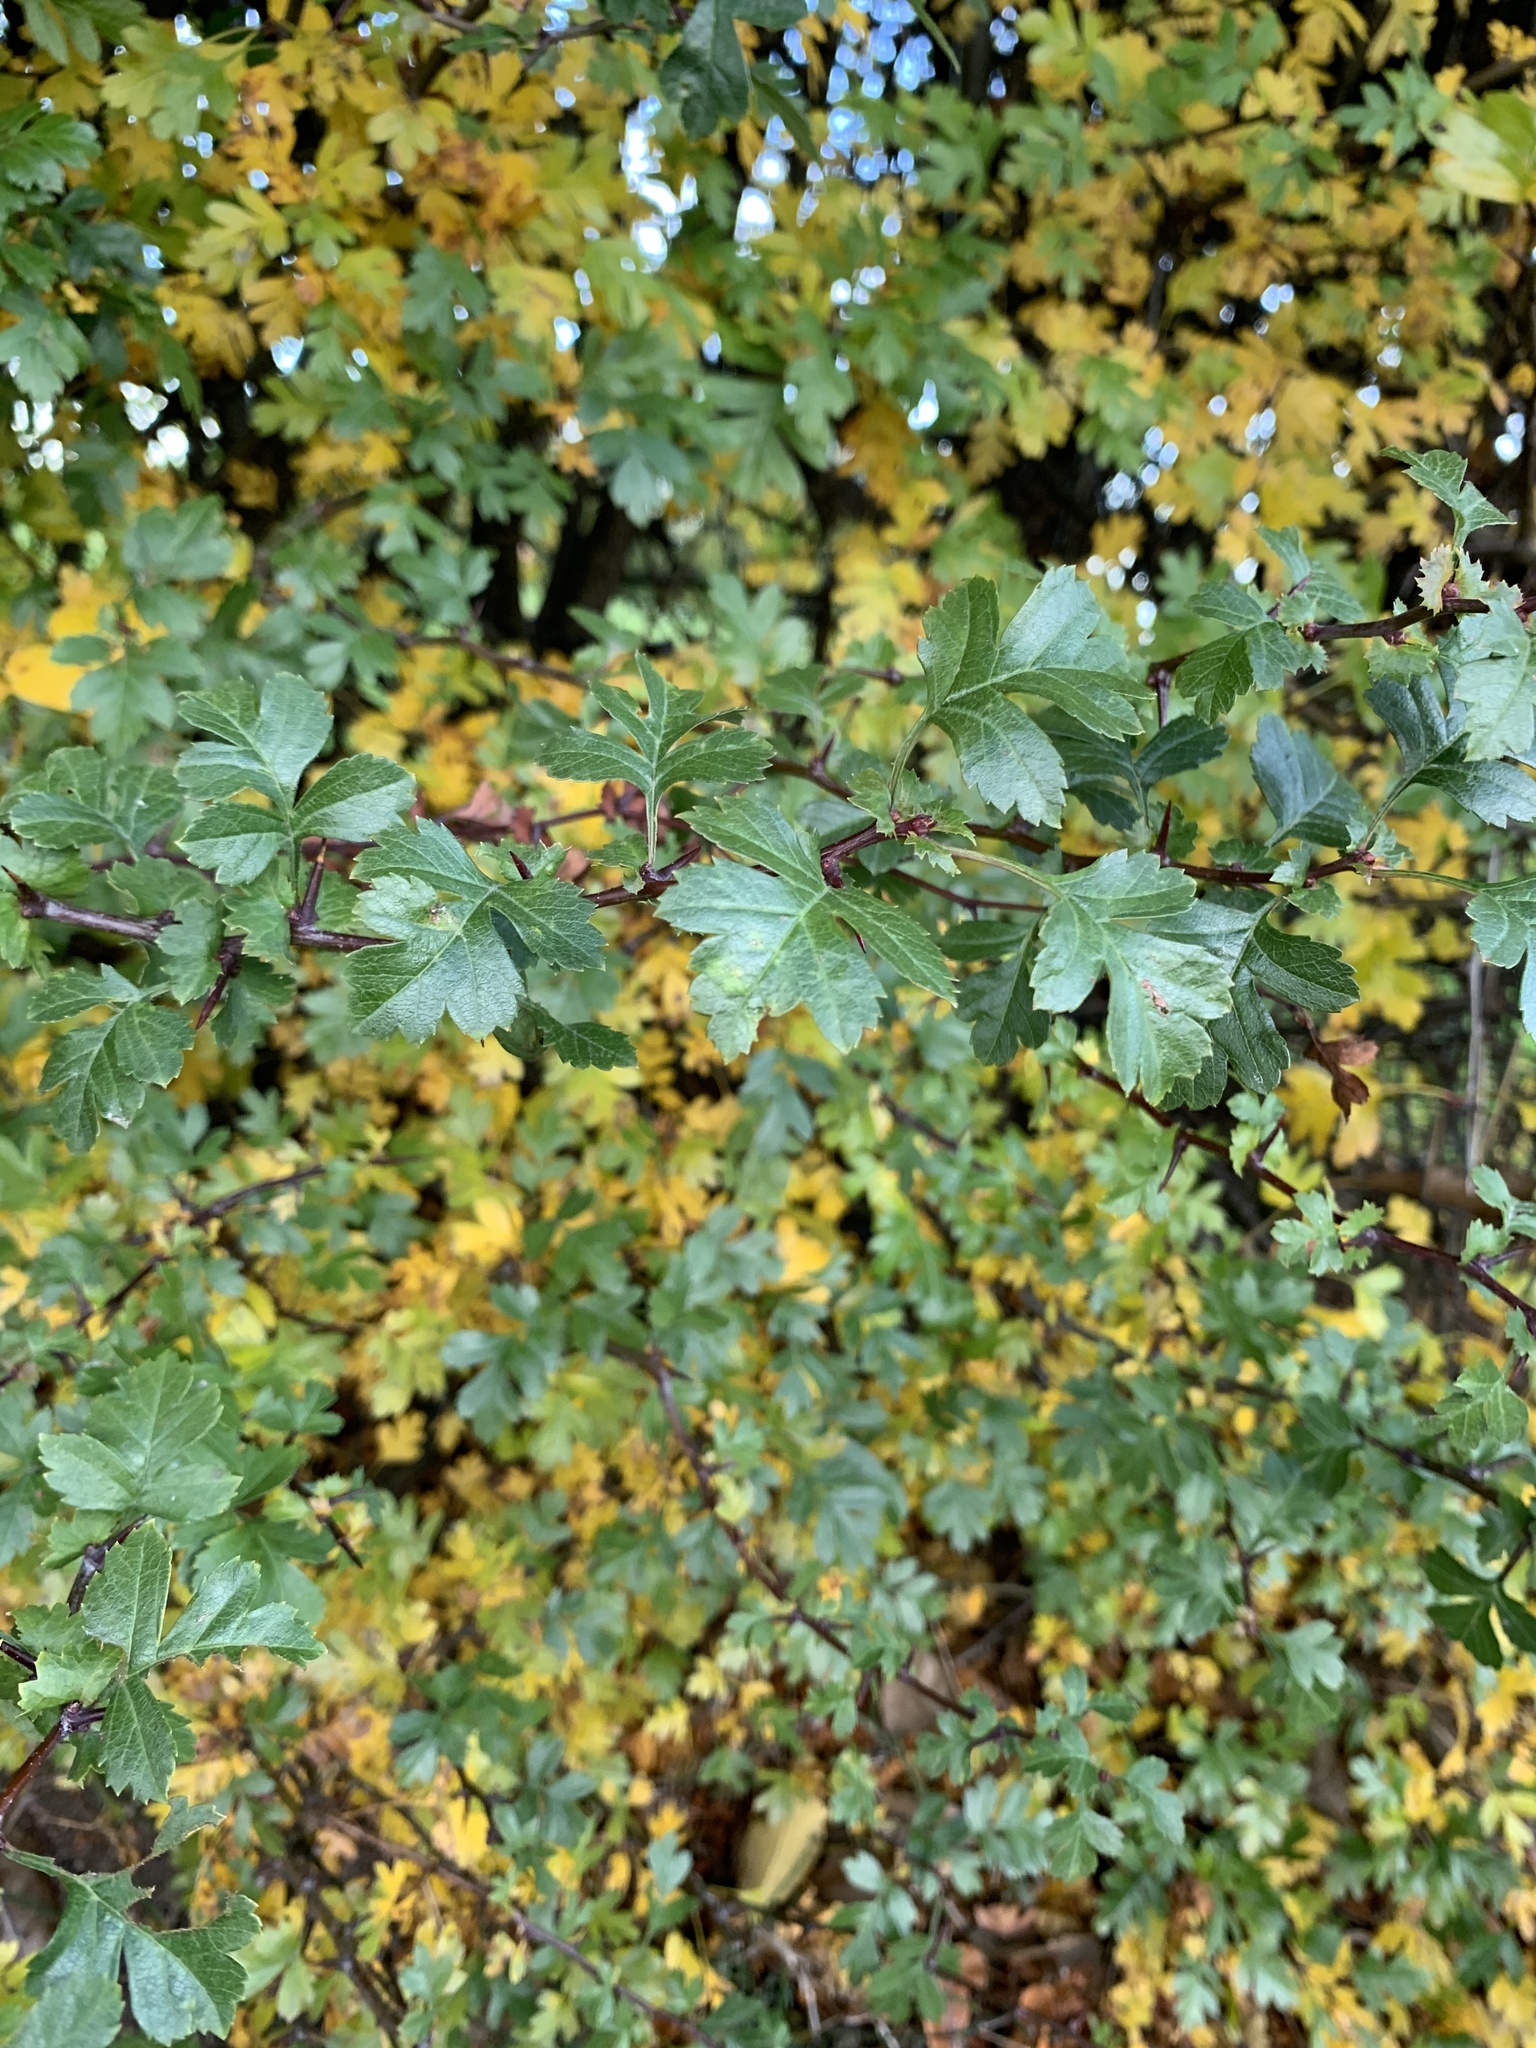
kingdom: Plantae
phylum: Tracheophyta
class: Magnoliopsida
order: Rosales
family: Rosaceae
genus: Crataegus
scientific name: Crataegus monogyna
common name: Hawthorn
